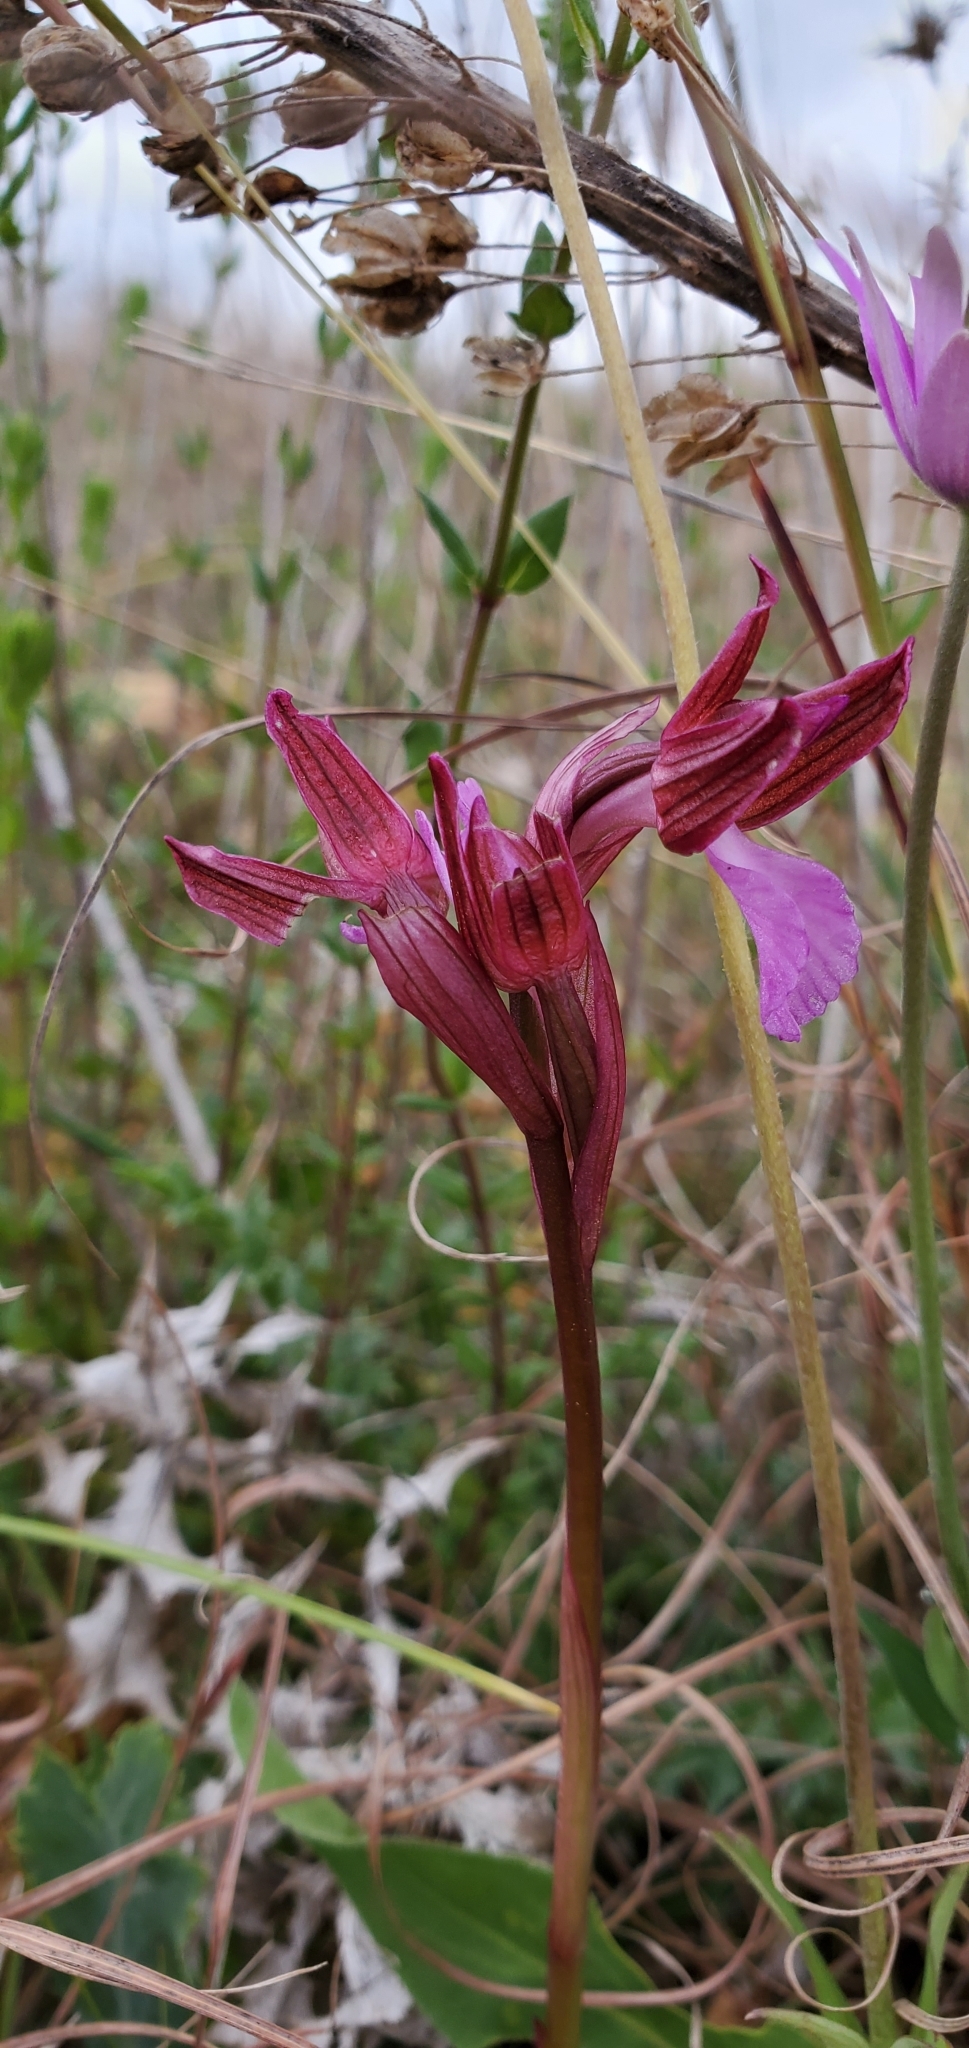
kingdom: Plantae
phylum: Tracheophyta
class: Liliopsida
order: Asparagales
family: Orchidaceae
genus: Anacamptis
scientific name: Anacamptis papilionacea
